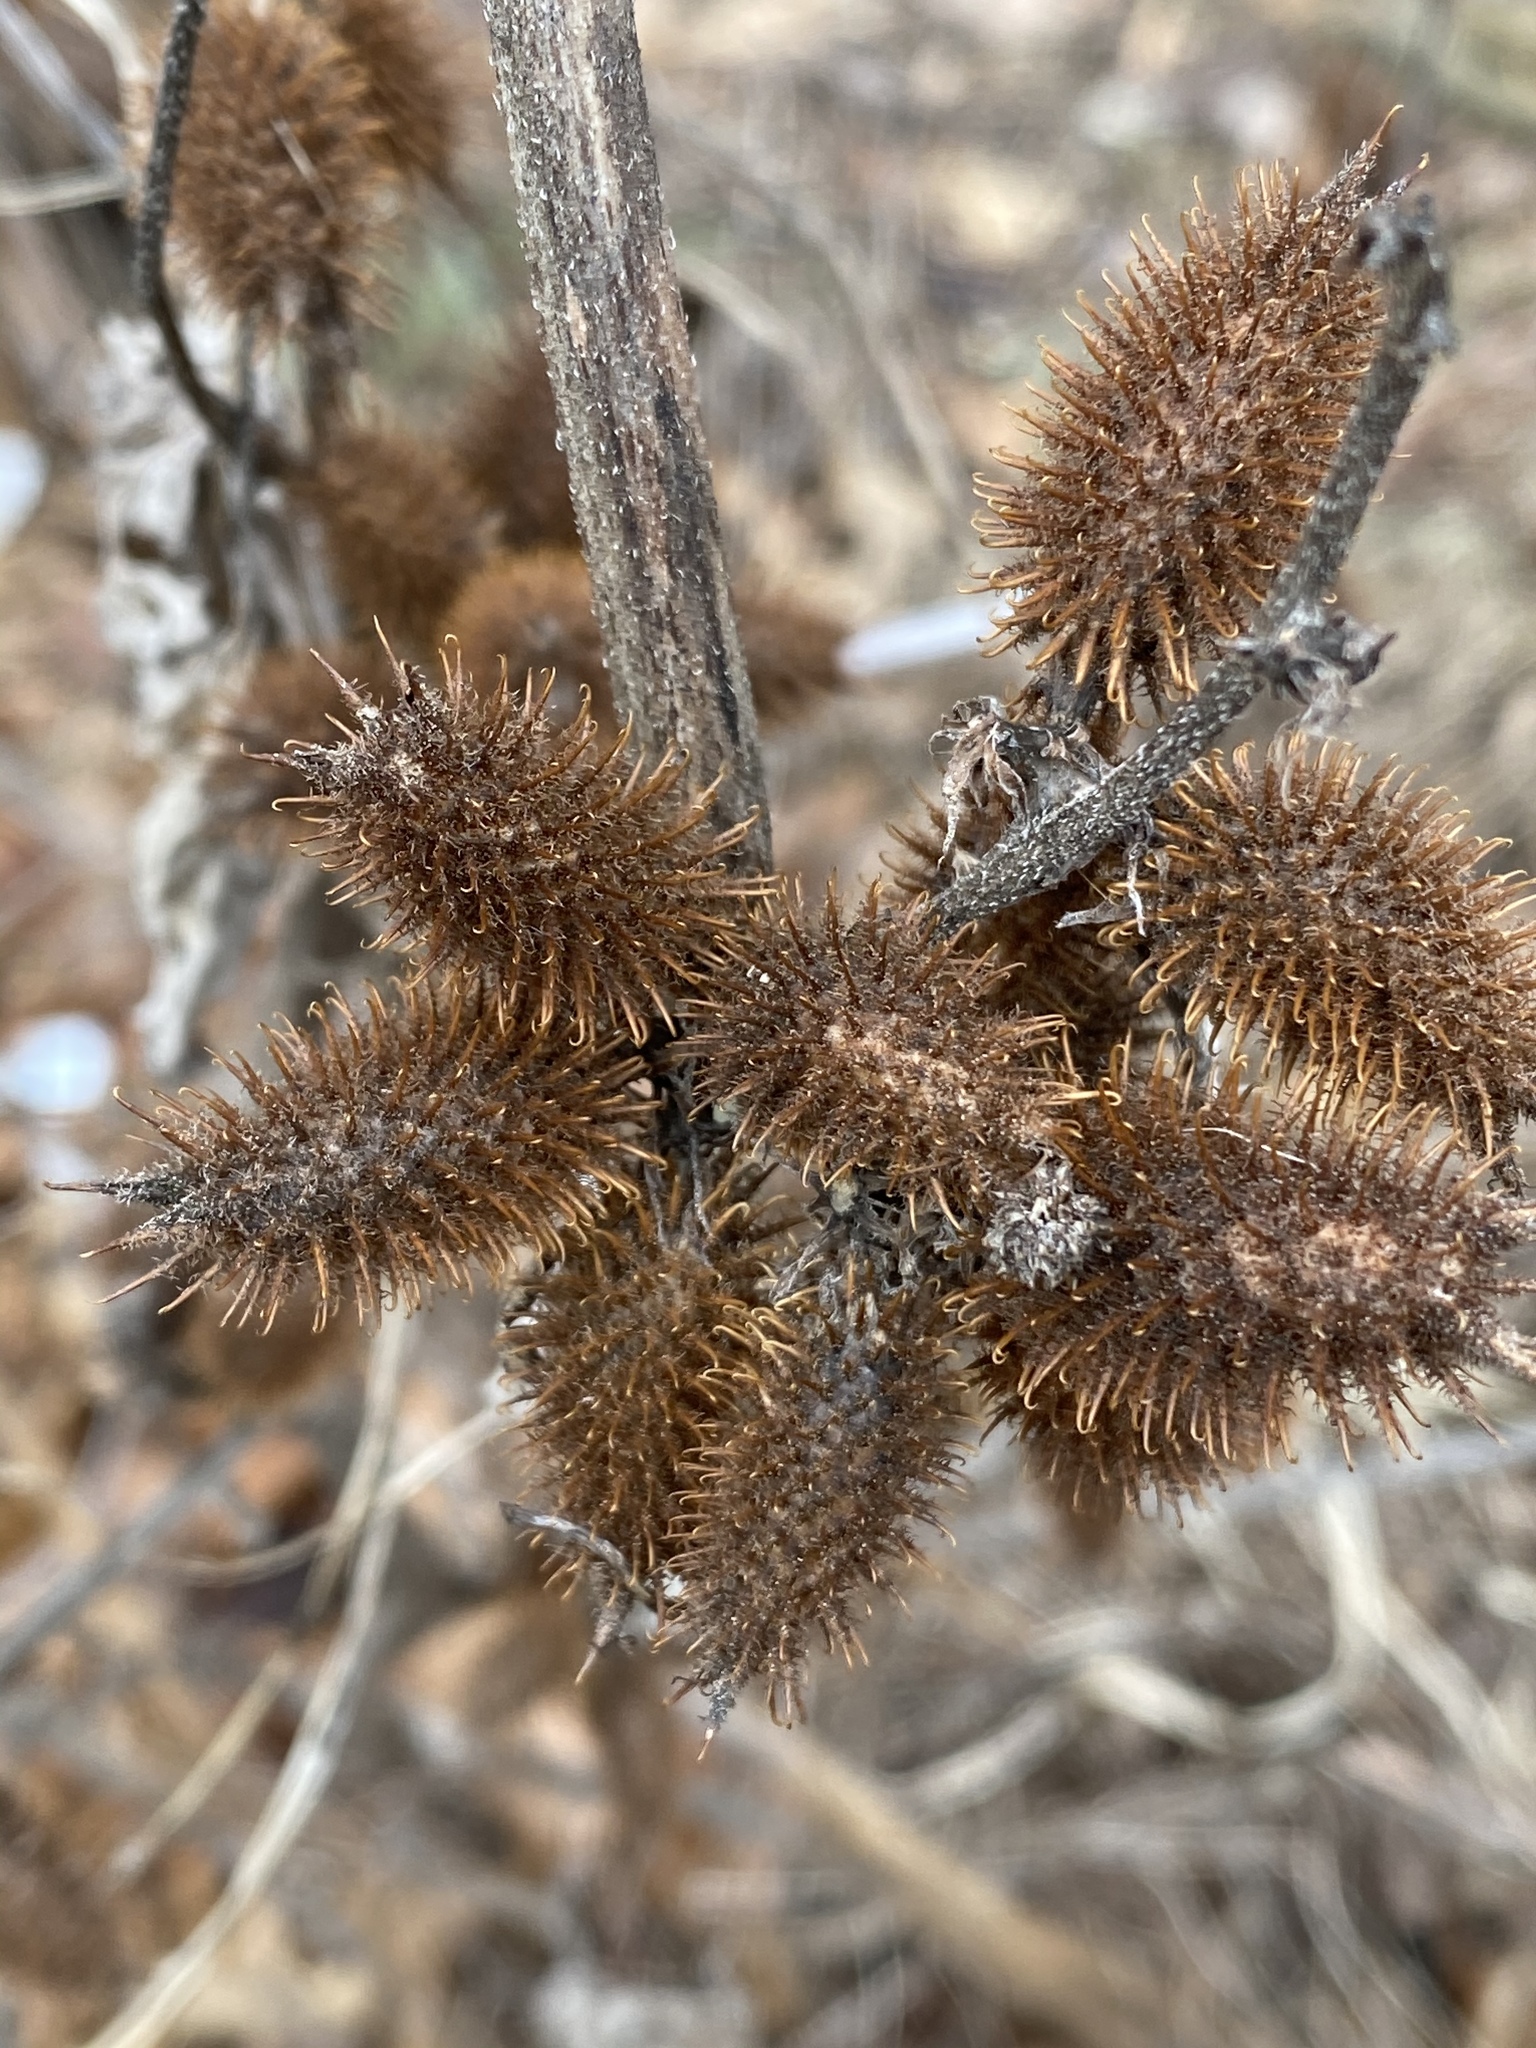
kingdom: Plantae
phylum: Tracheophyta
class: Magnoliopsida
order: Asterales
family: Asteraceae
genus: Xanthium
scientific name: Xanthium strumarium
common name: Rough cocklebur
